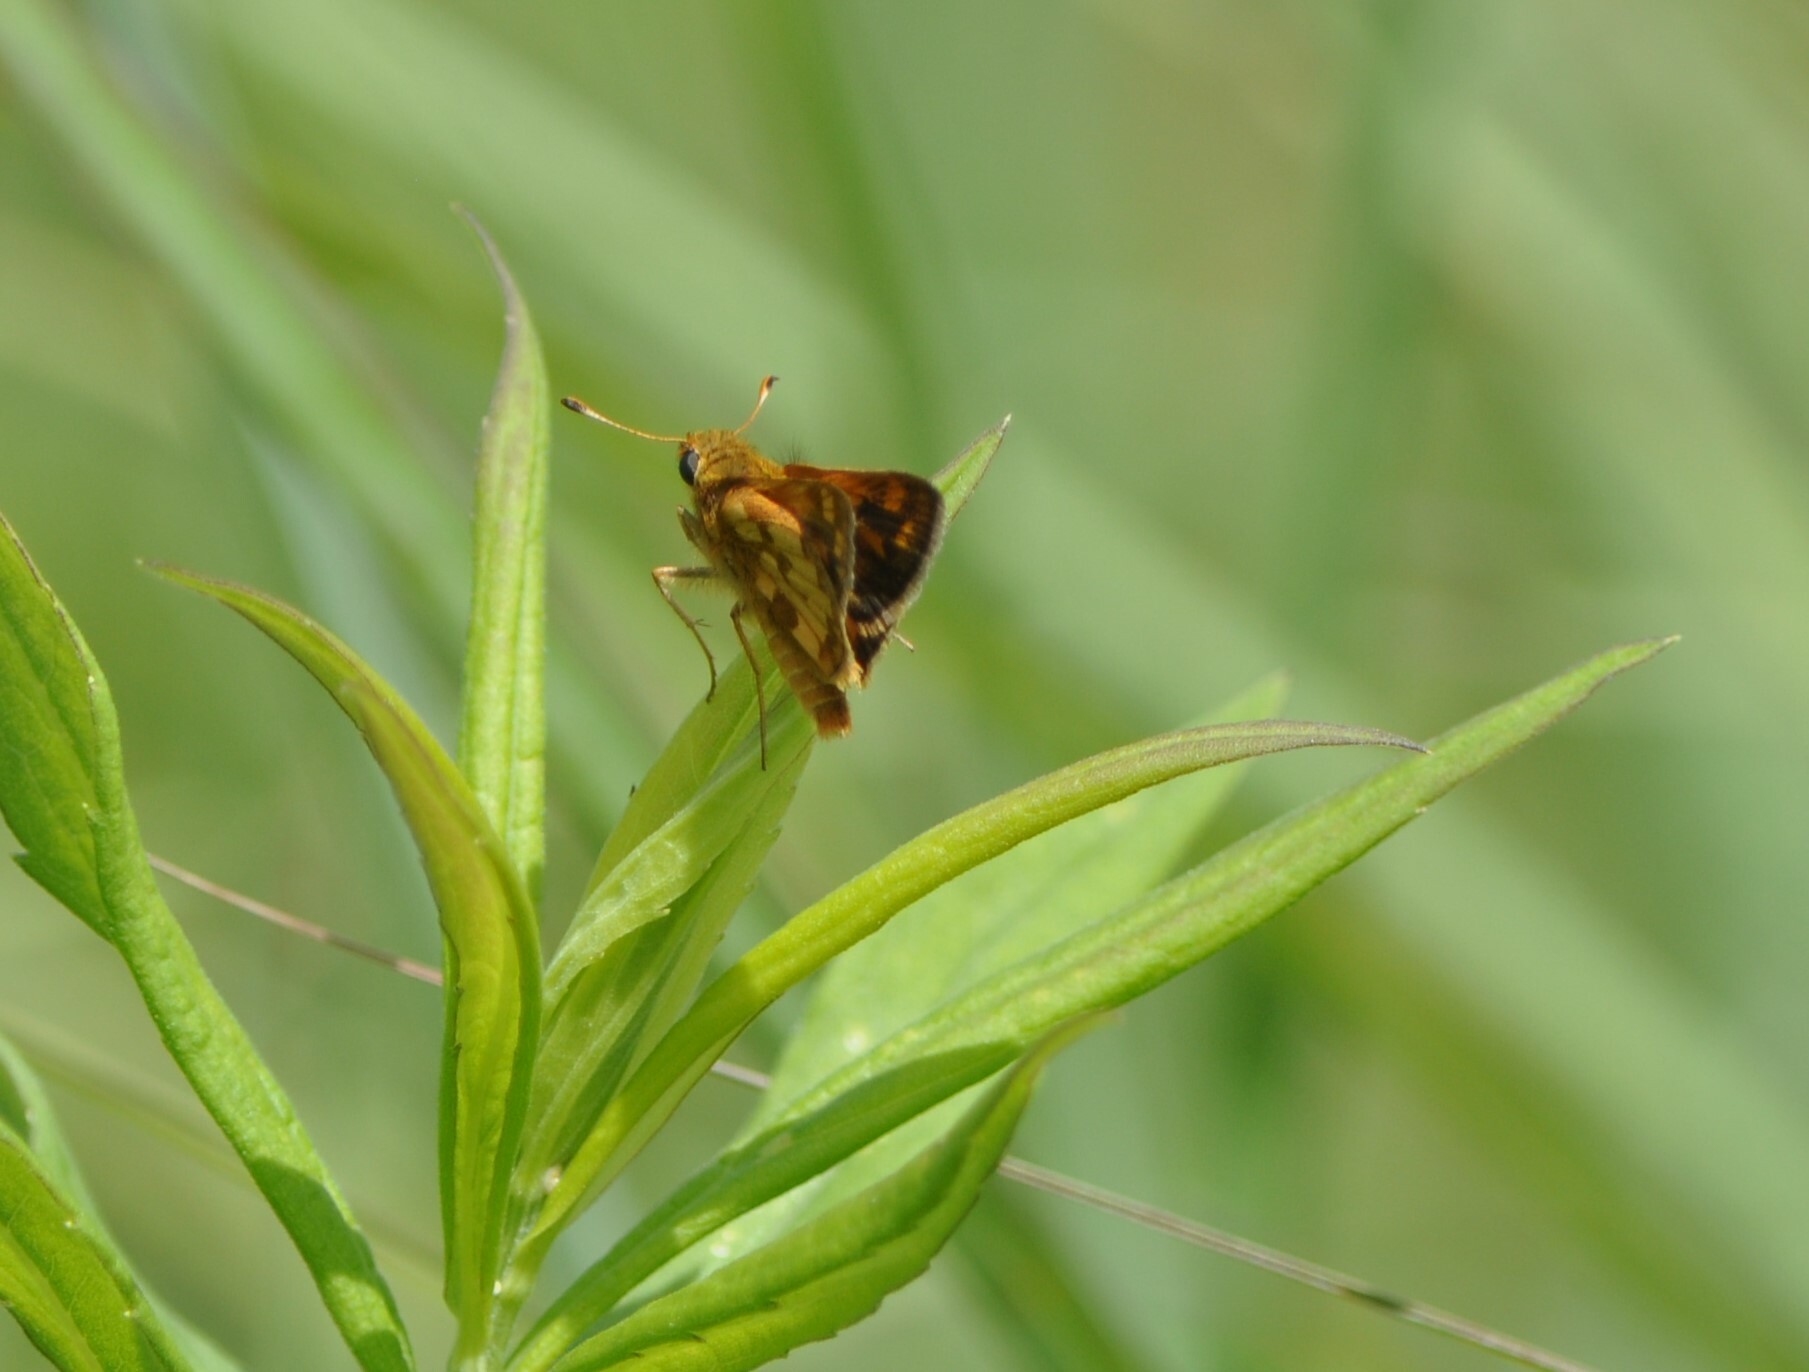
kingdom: Animalia
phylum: Arthropoda
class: Insecta
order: Lepidoptera
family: Hesperiidae
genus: Polites
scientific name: Polites coras
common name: Peck's skipper
